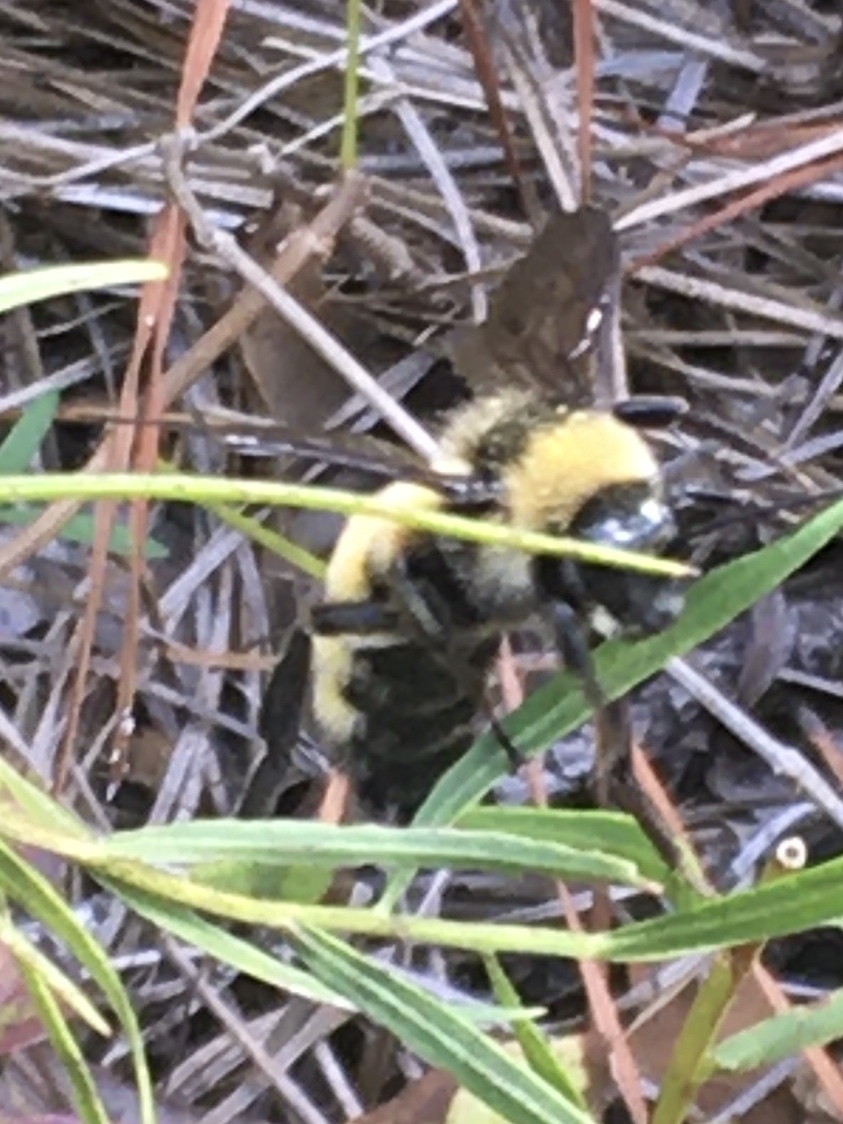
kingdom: Animalia
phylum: Arthropoda
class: Insecta
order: Hymenoptera
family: Apidae
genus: Bombus
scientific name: Bombus pensylvanicus
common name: Bumble bee
